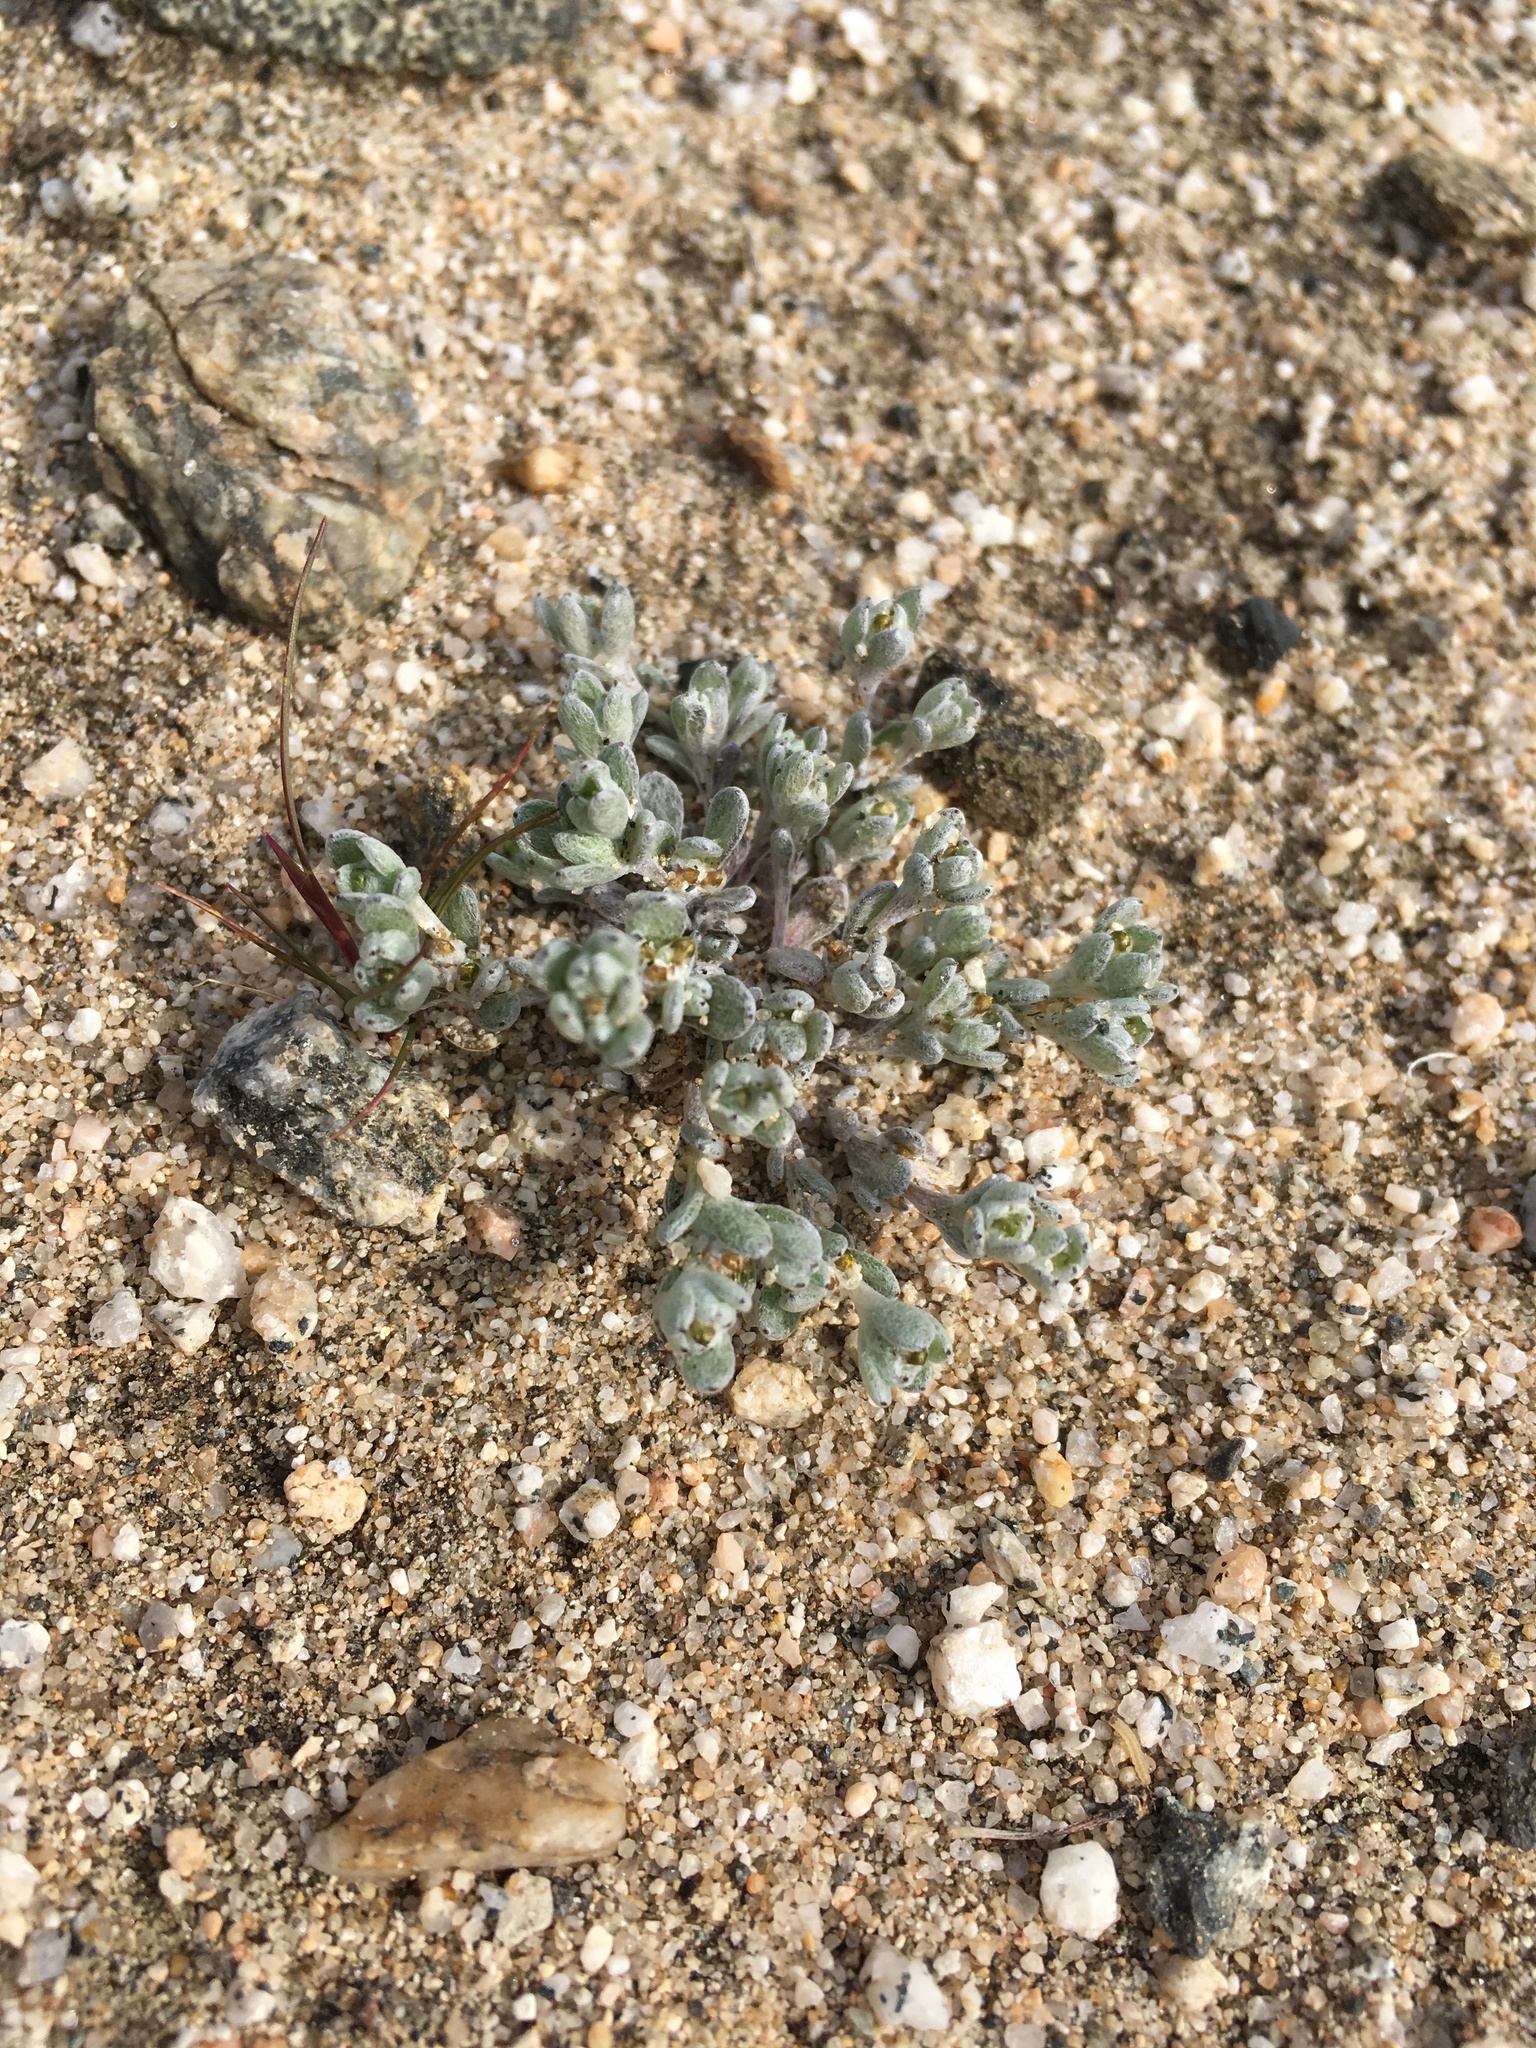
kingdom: Plantae
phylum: Tracheophyta
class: Magnoliopsida
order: Asterales
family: Asteraceae
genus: Logfia
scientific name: Logfia depressa
